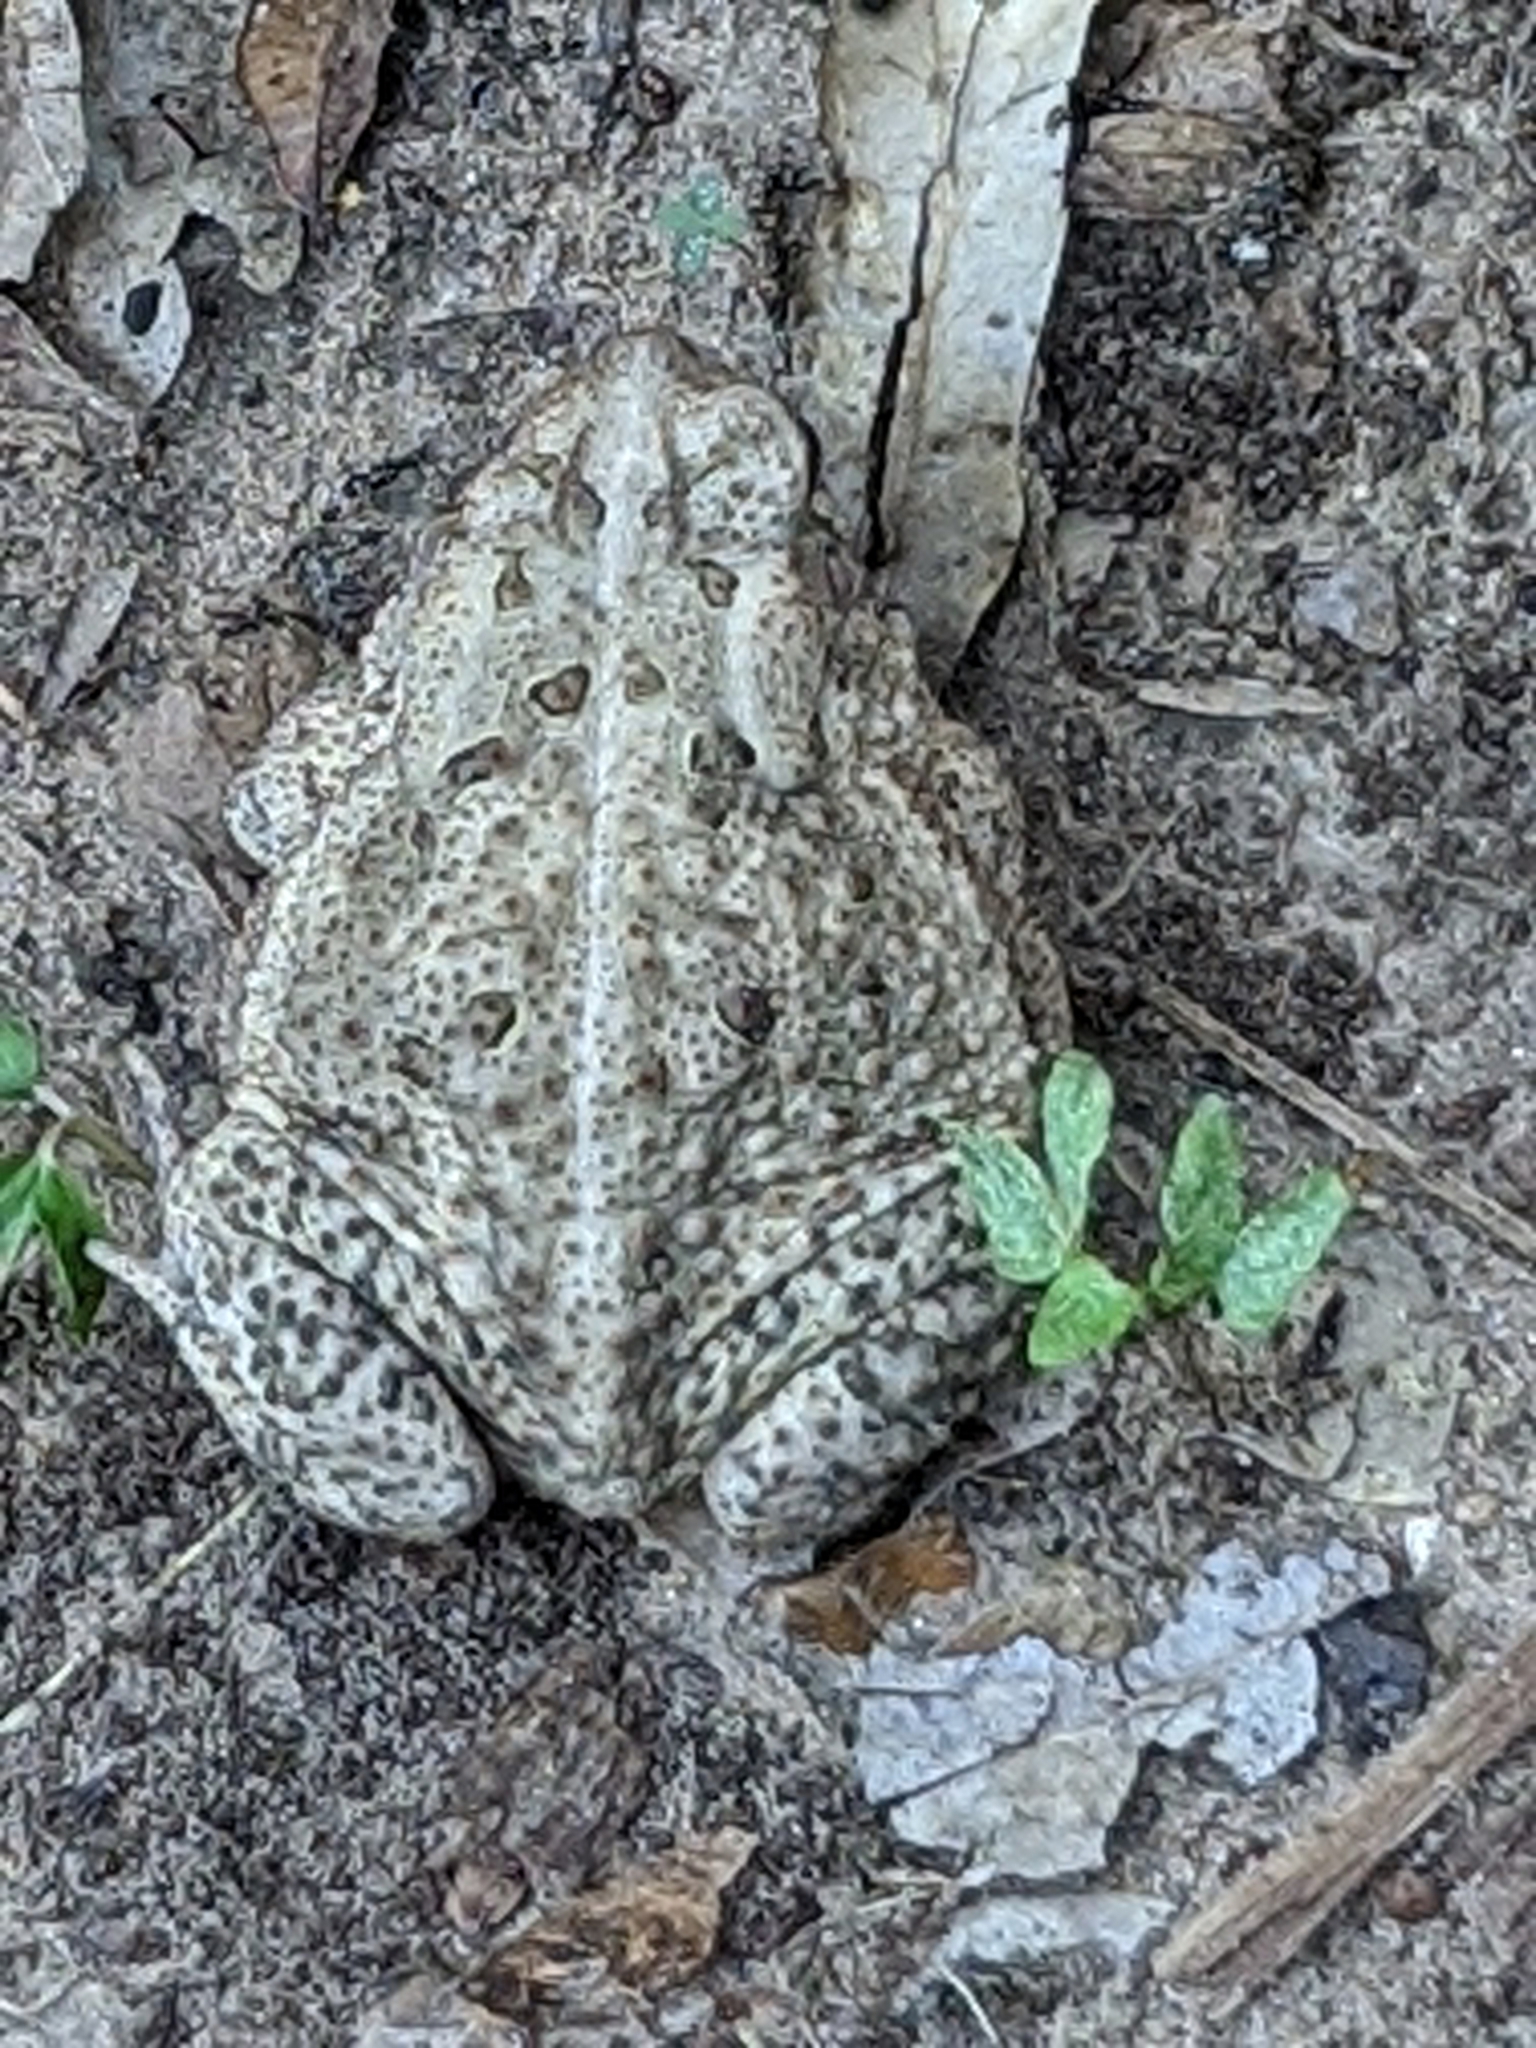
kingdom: Animalia
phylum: Chordata
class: Amphibia
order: Anura
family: Bufonidae
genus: Anaxyrus
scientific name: Anaxyrus fowleri
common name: Fowler's toad
